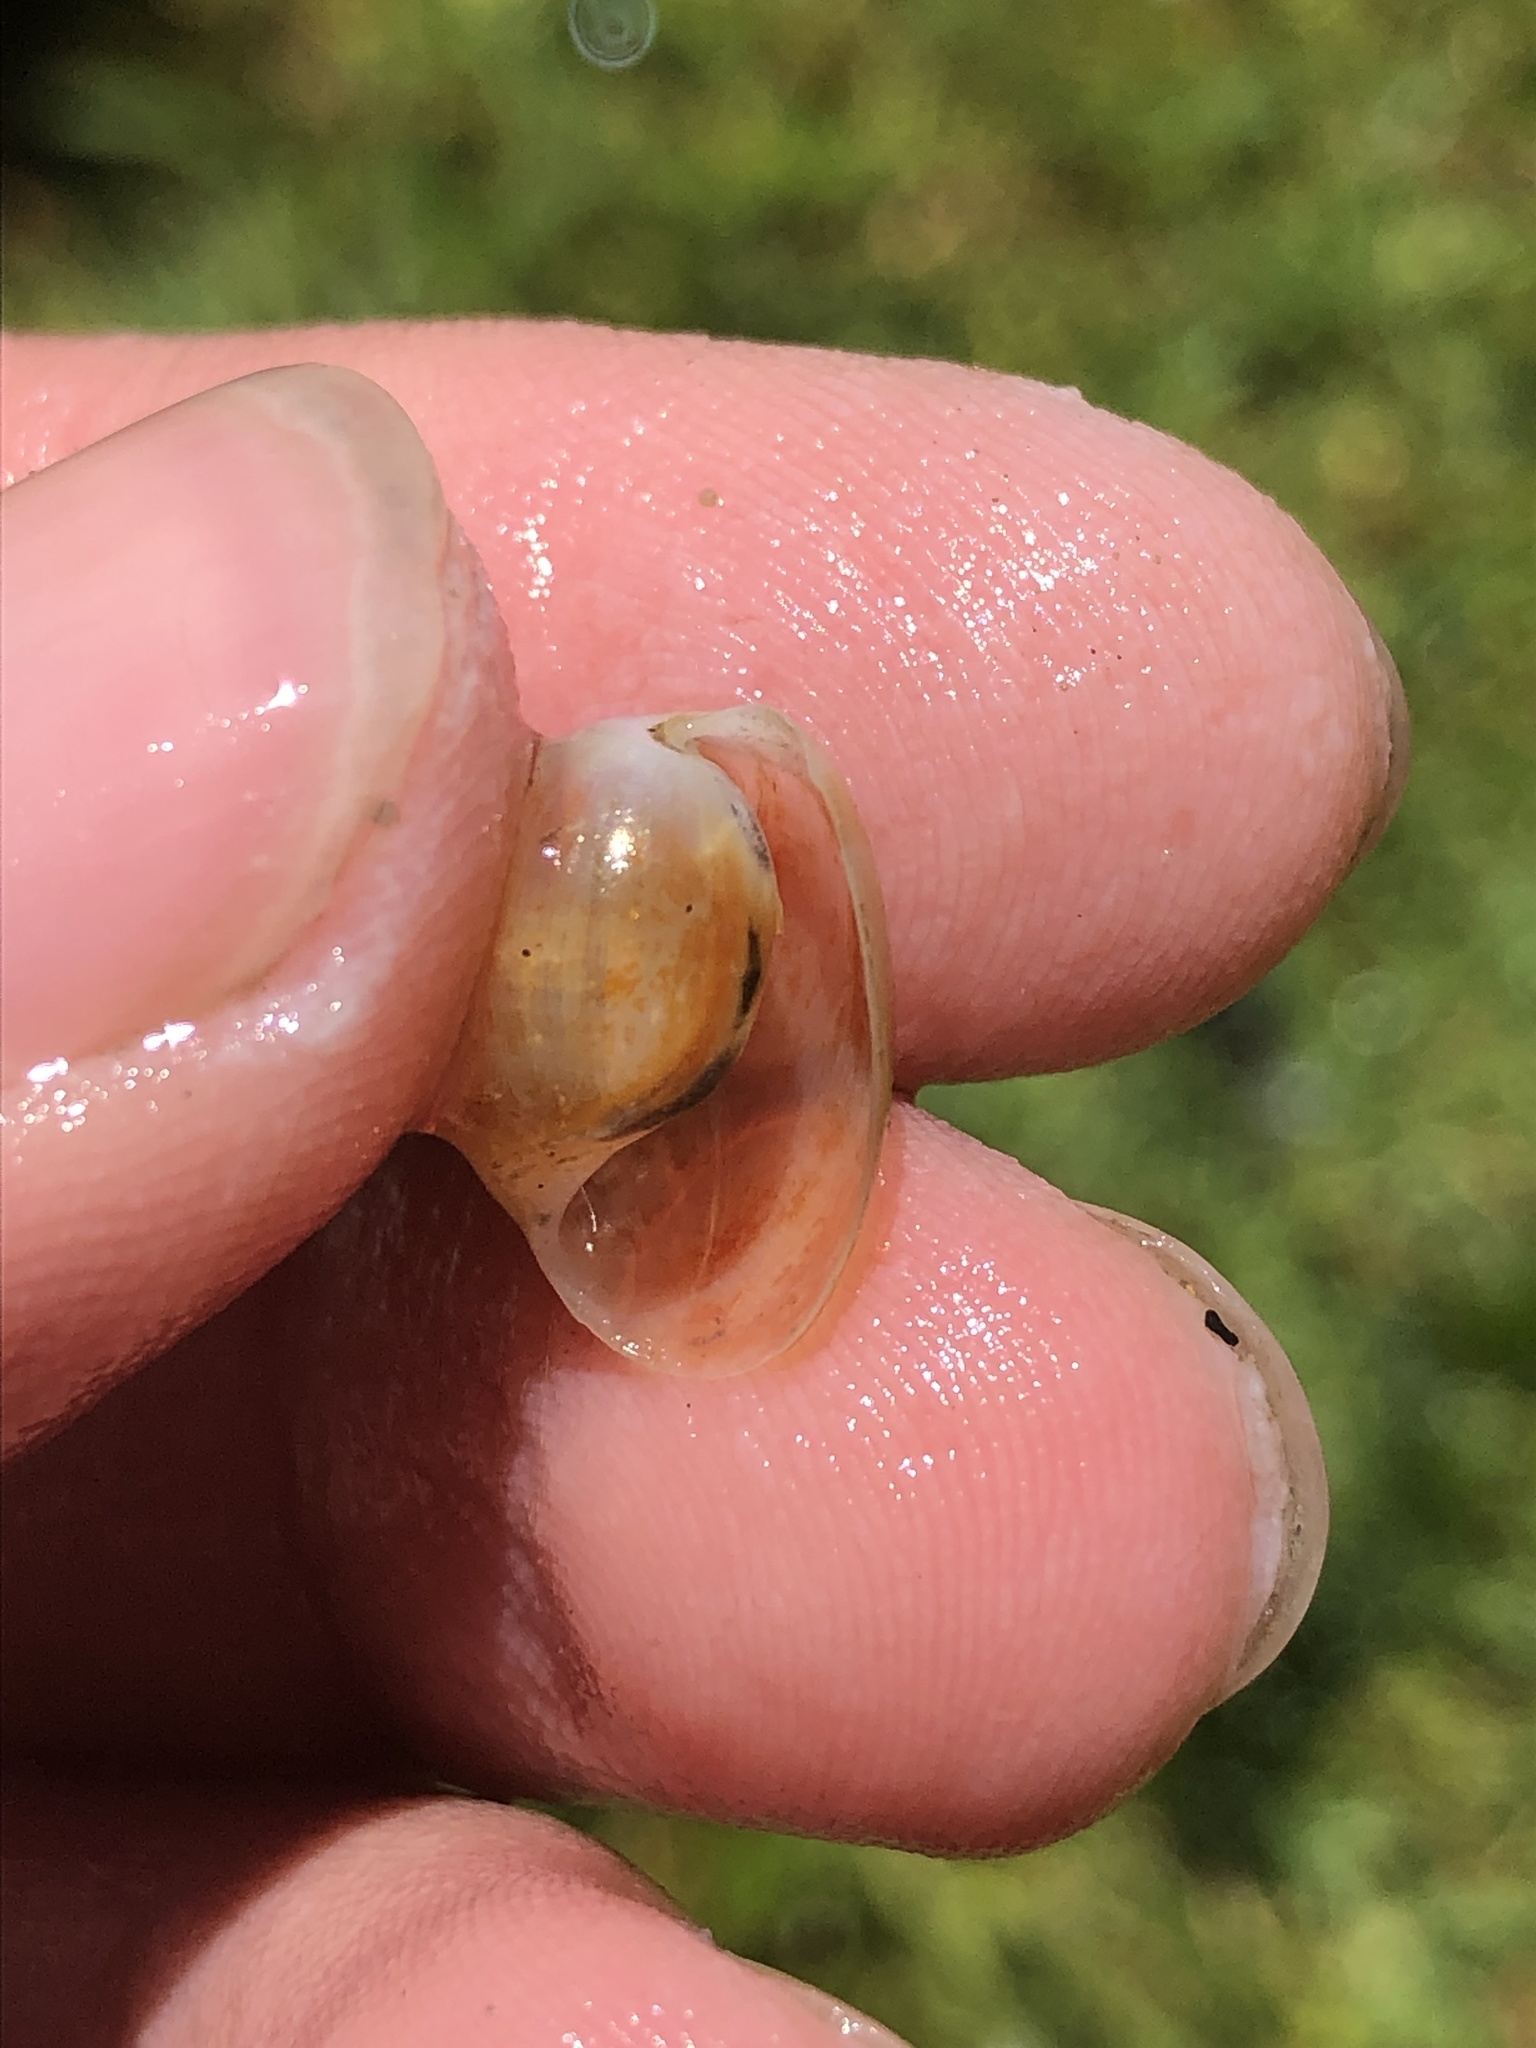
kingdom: Animalia
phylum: Mollusca
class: Gastropoda
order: Cephalaspidea
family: Haminoeidae
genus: Haloa
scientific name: Haloa japonica
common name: Japanese bubble snail
